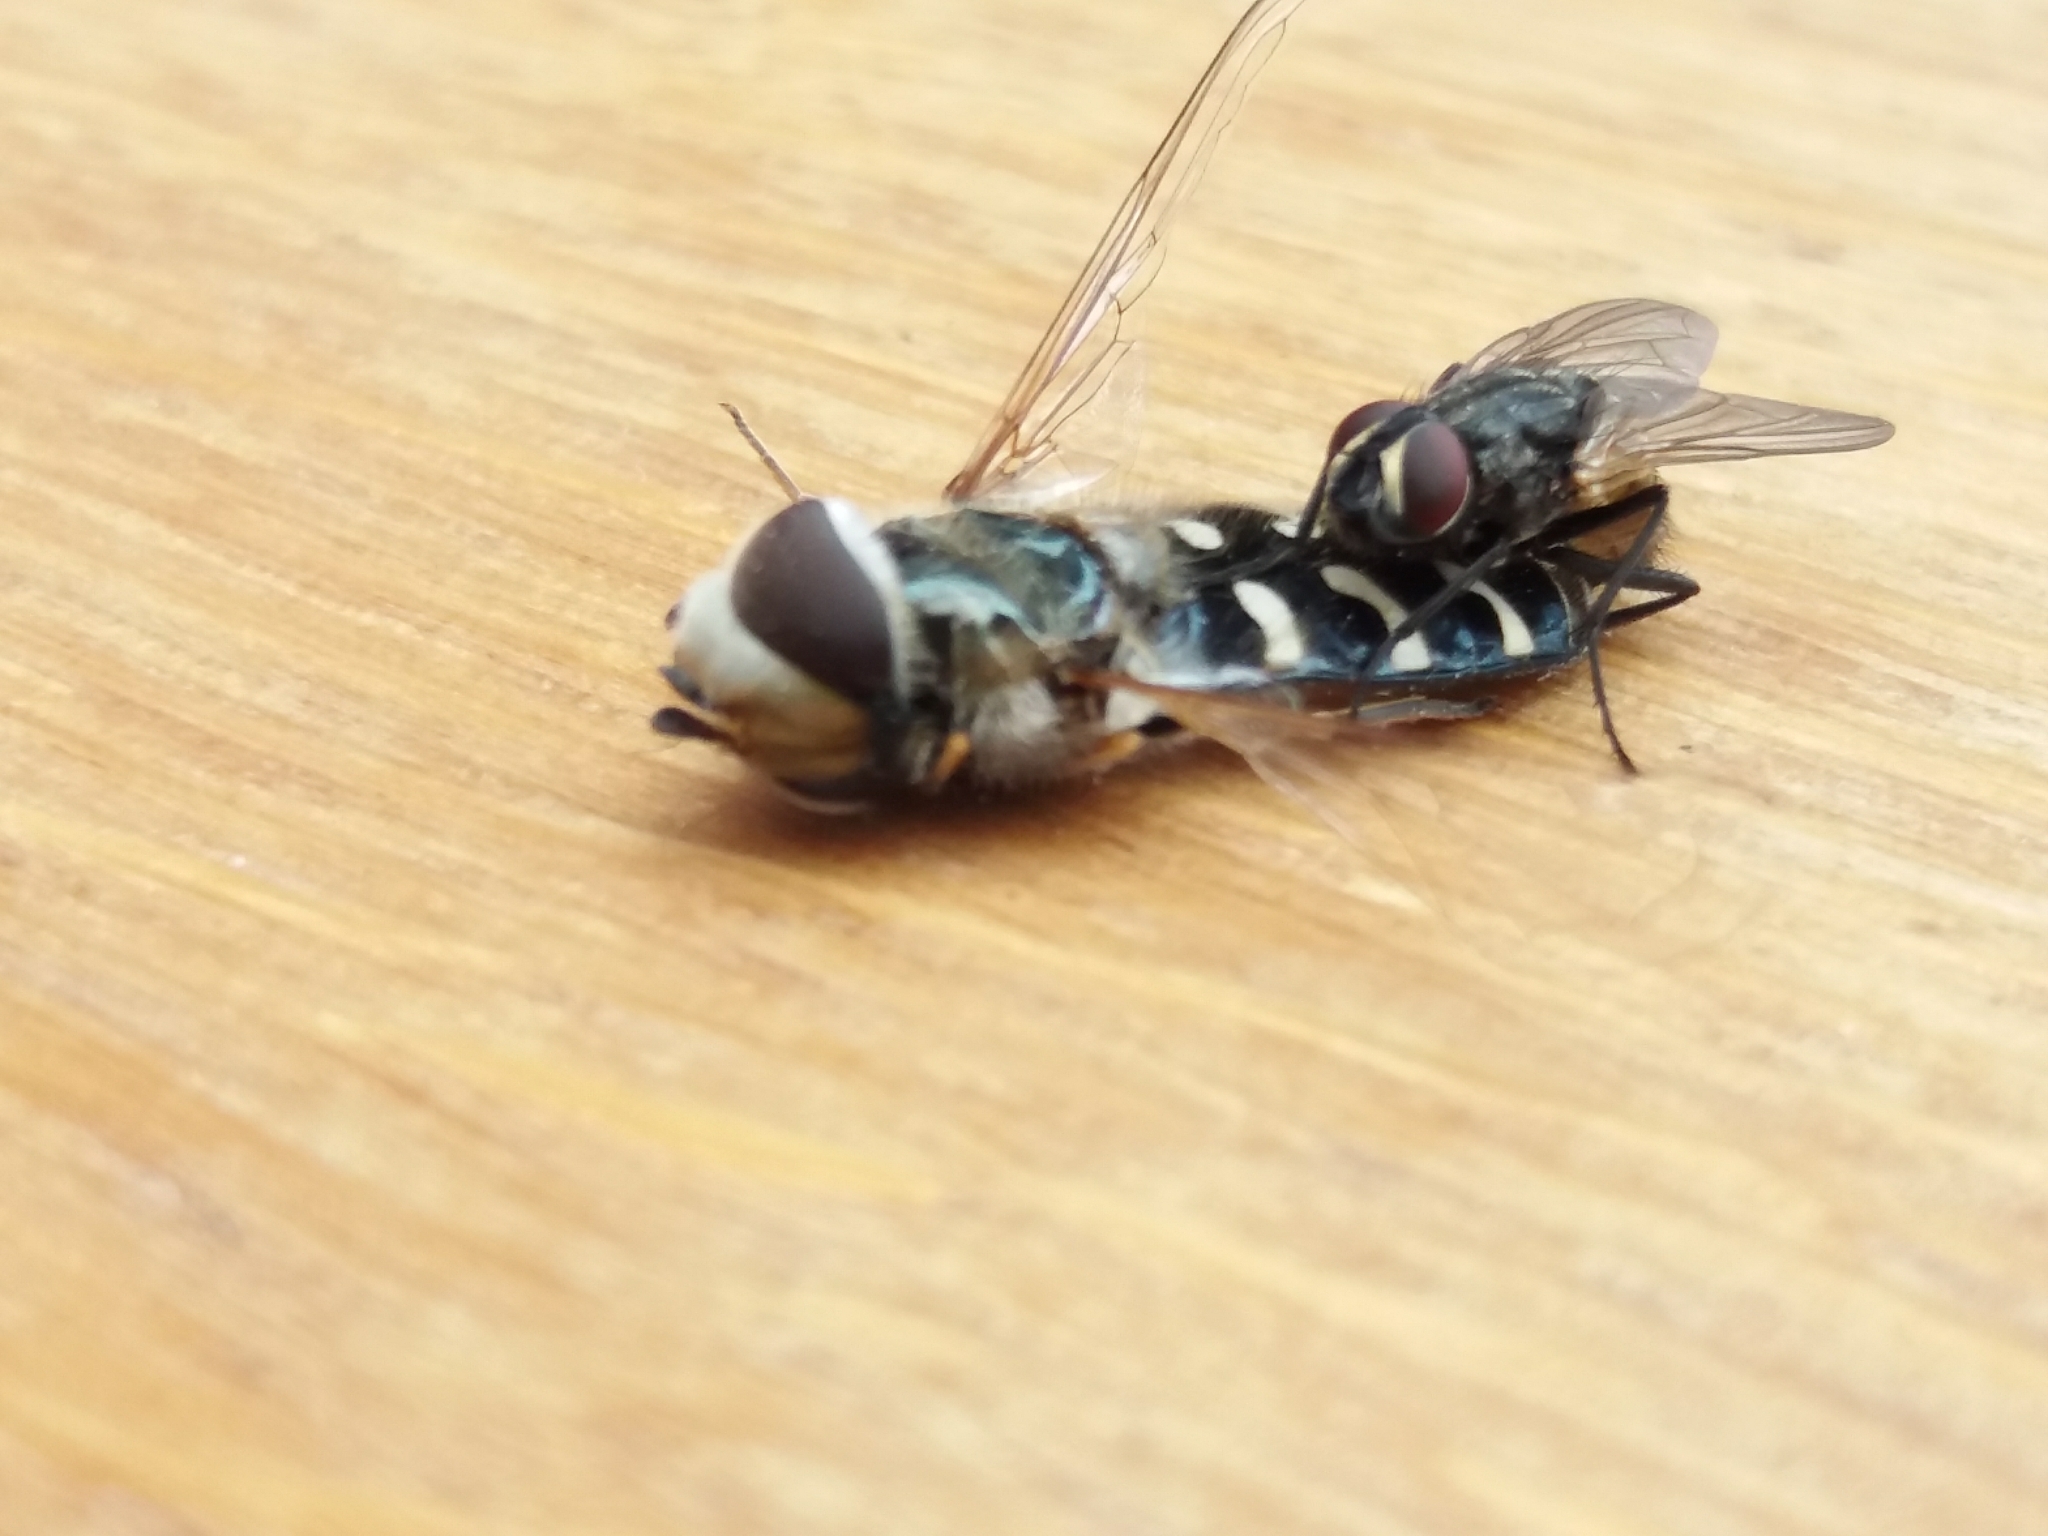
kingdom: Animalia
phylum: Arthropoda
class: Insecta
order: Diptera
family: Muscidae
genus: Musca
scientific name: Musca domestica
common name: House fly
